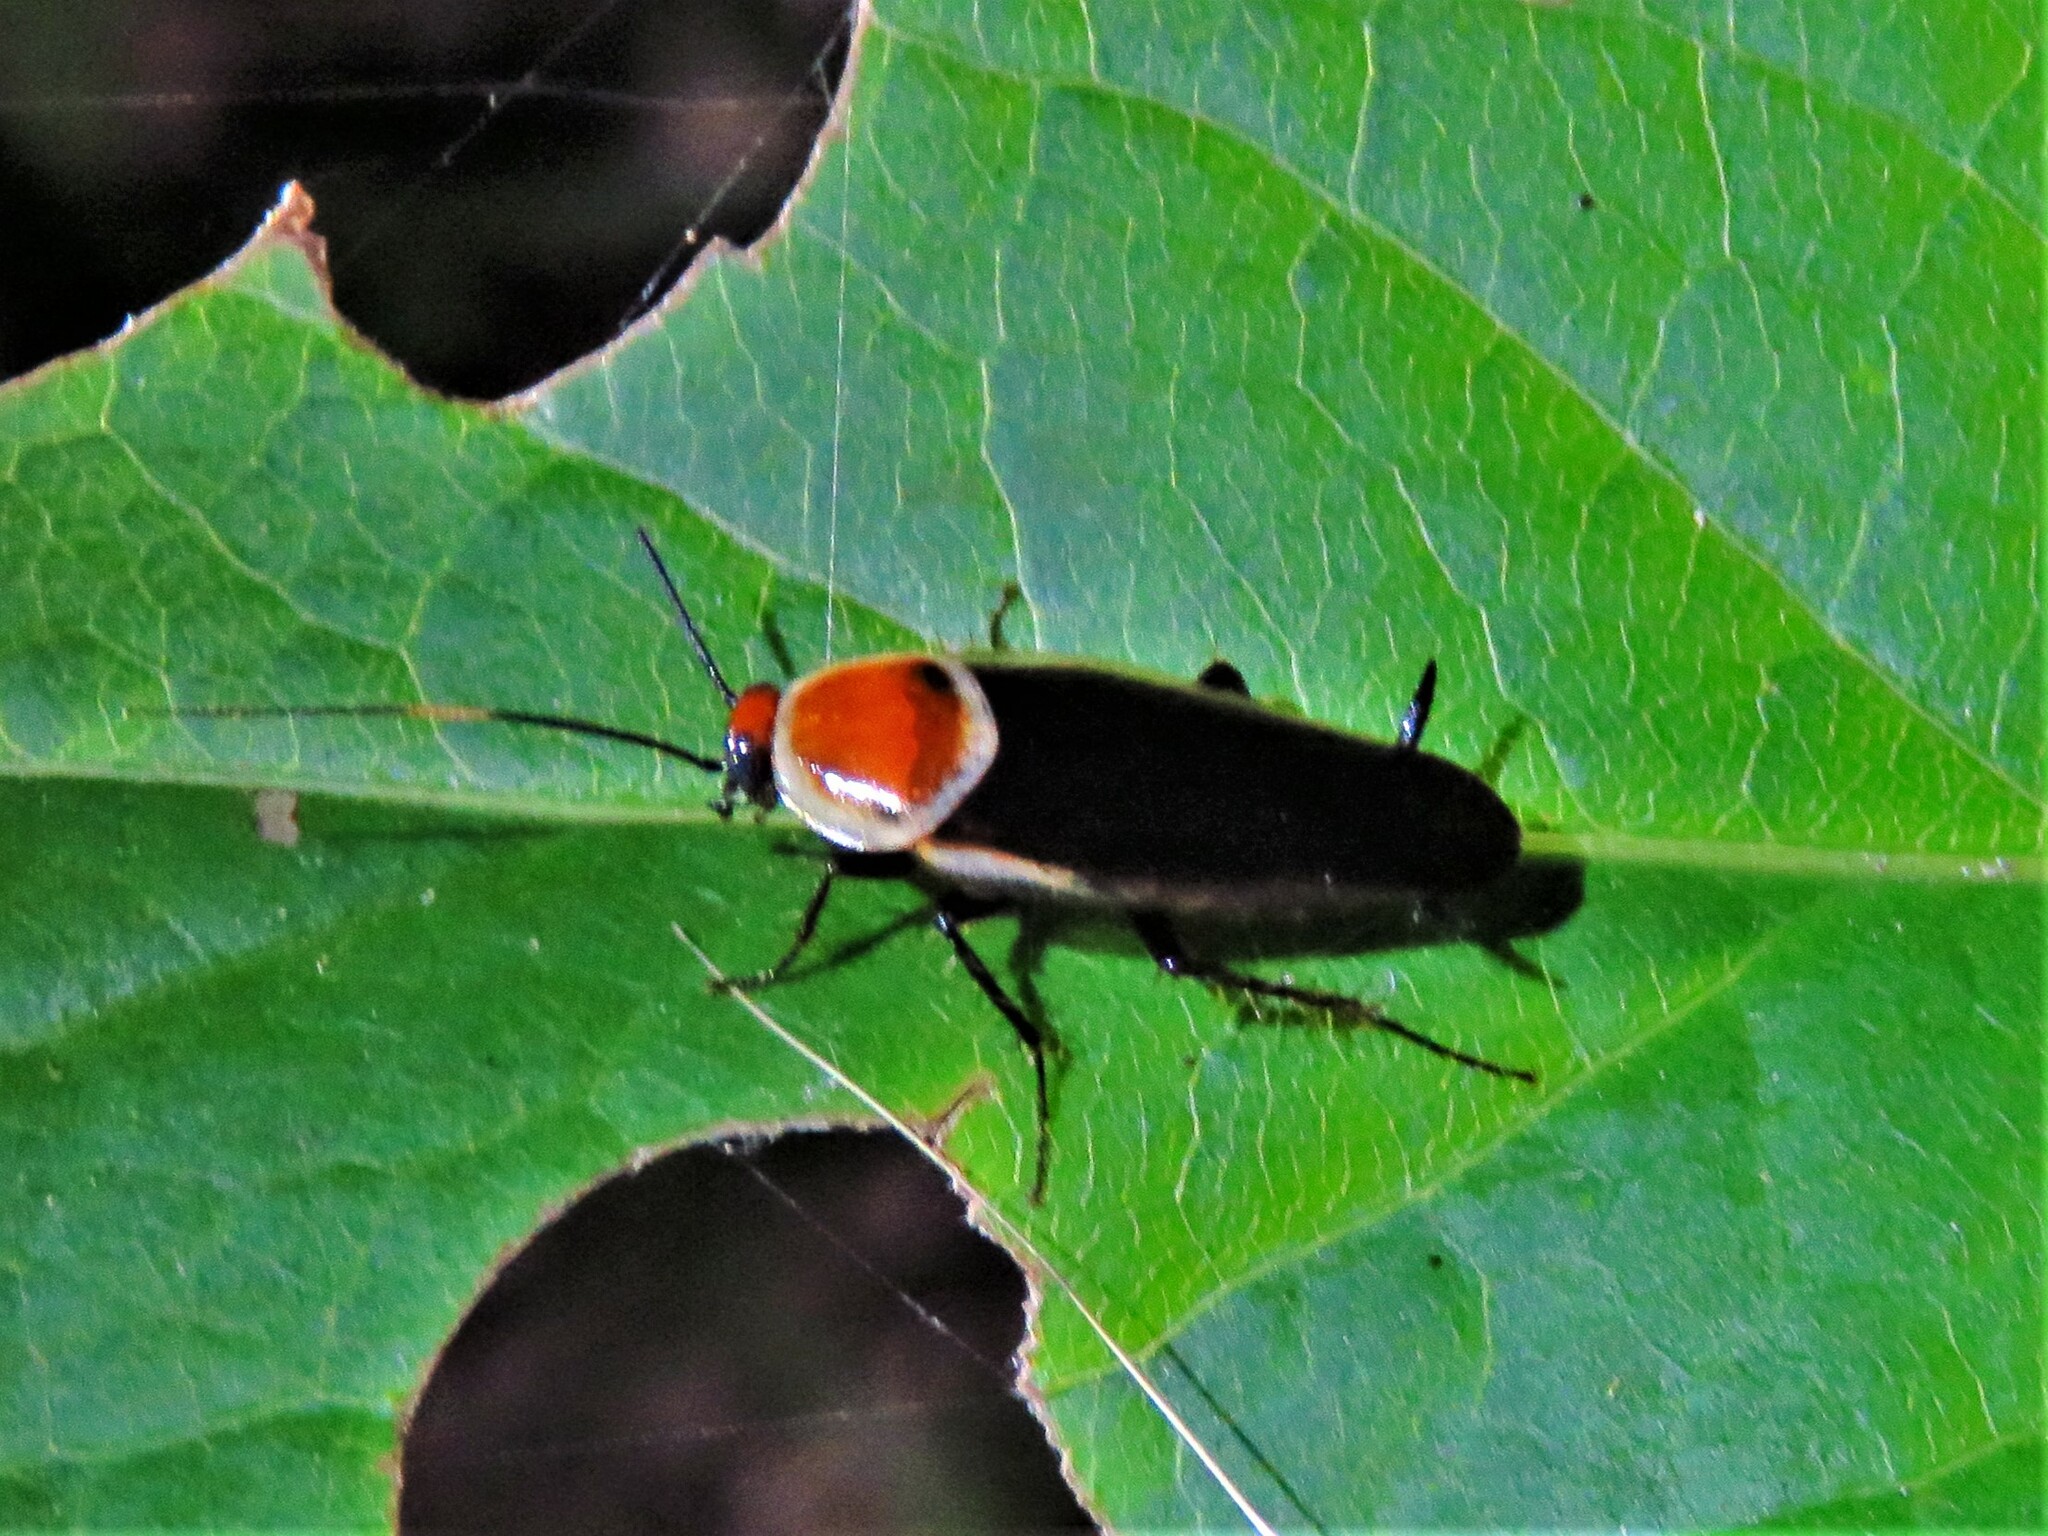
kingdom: Animalia
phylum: Arthropoda
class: Insecta
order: Blattodea
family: Ectobiidae
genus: Pseudomops
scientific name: Pseudomops septentrionalis
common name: Pale-bordered field cockroach
